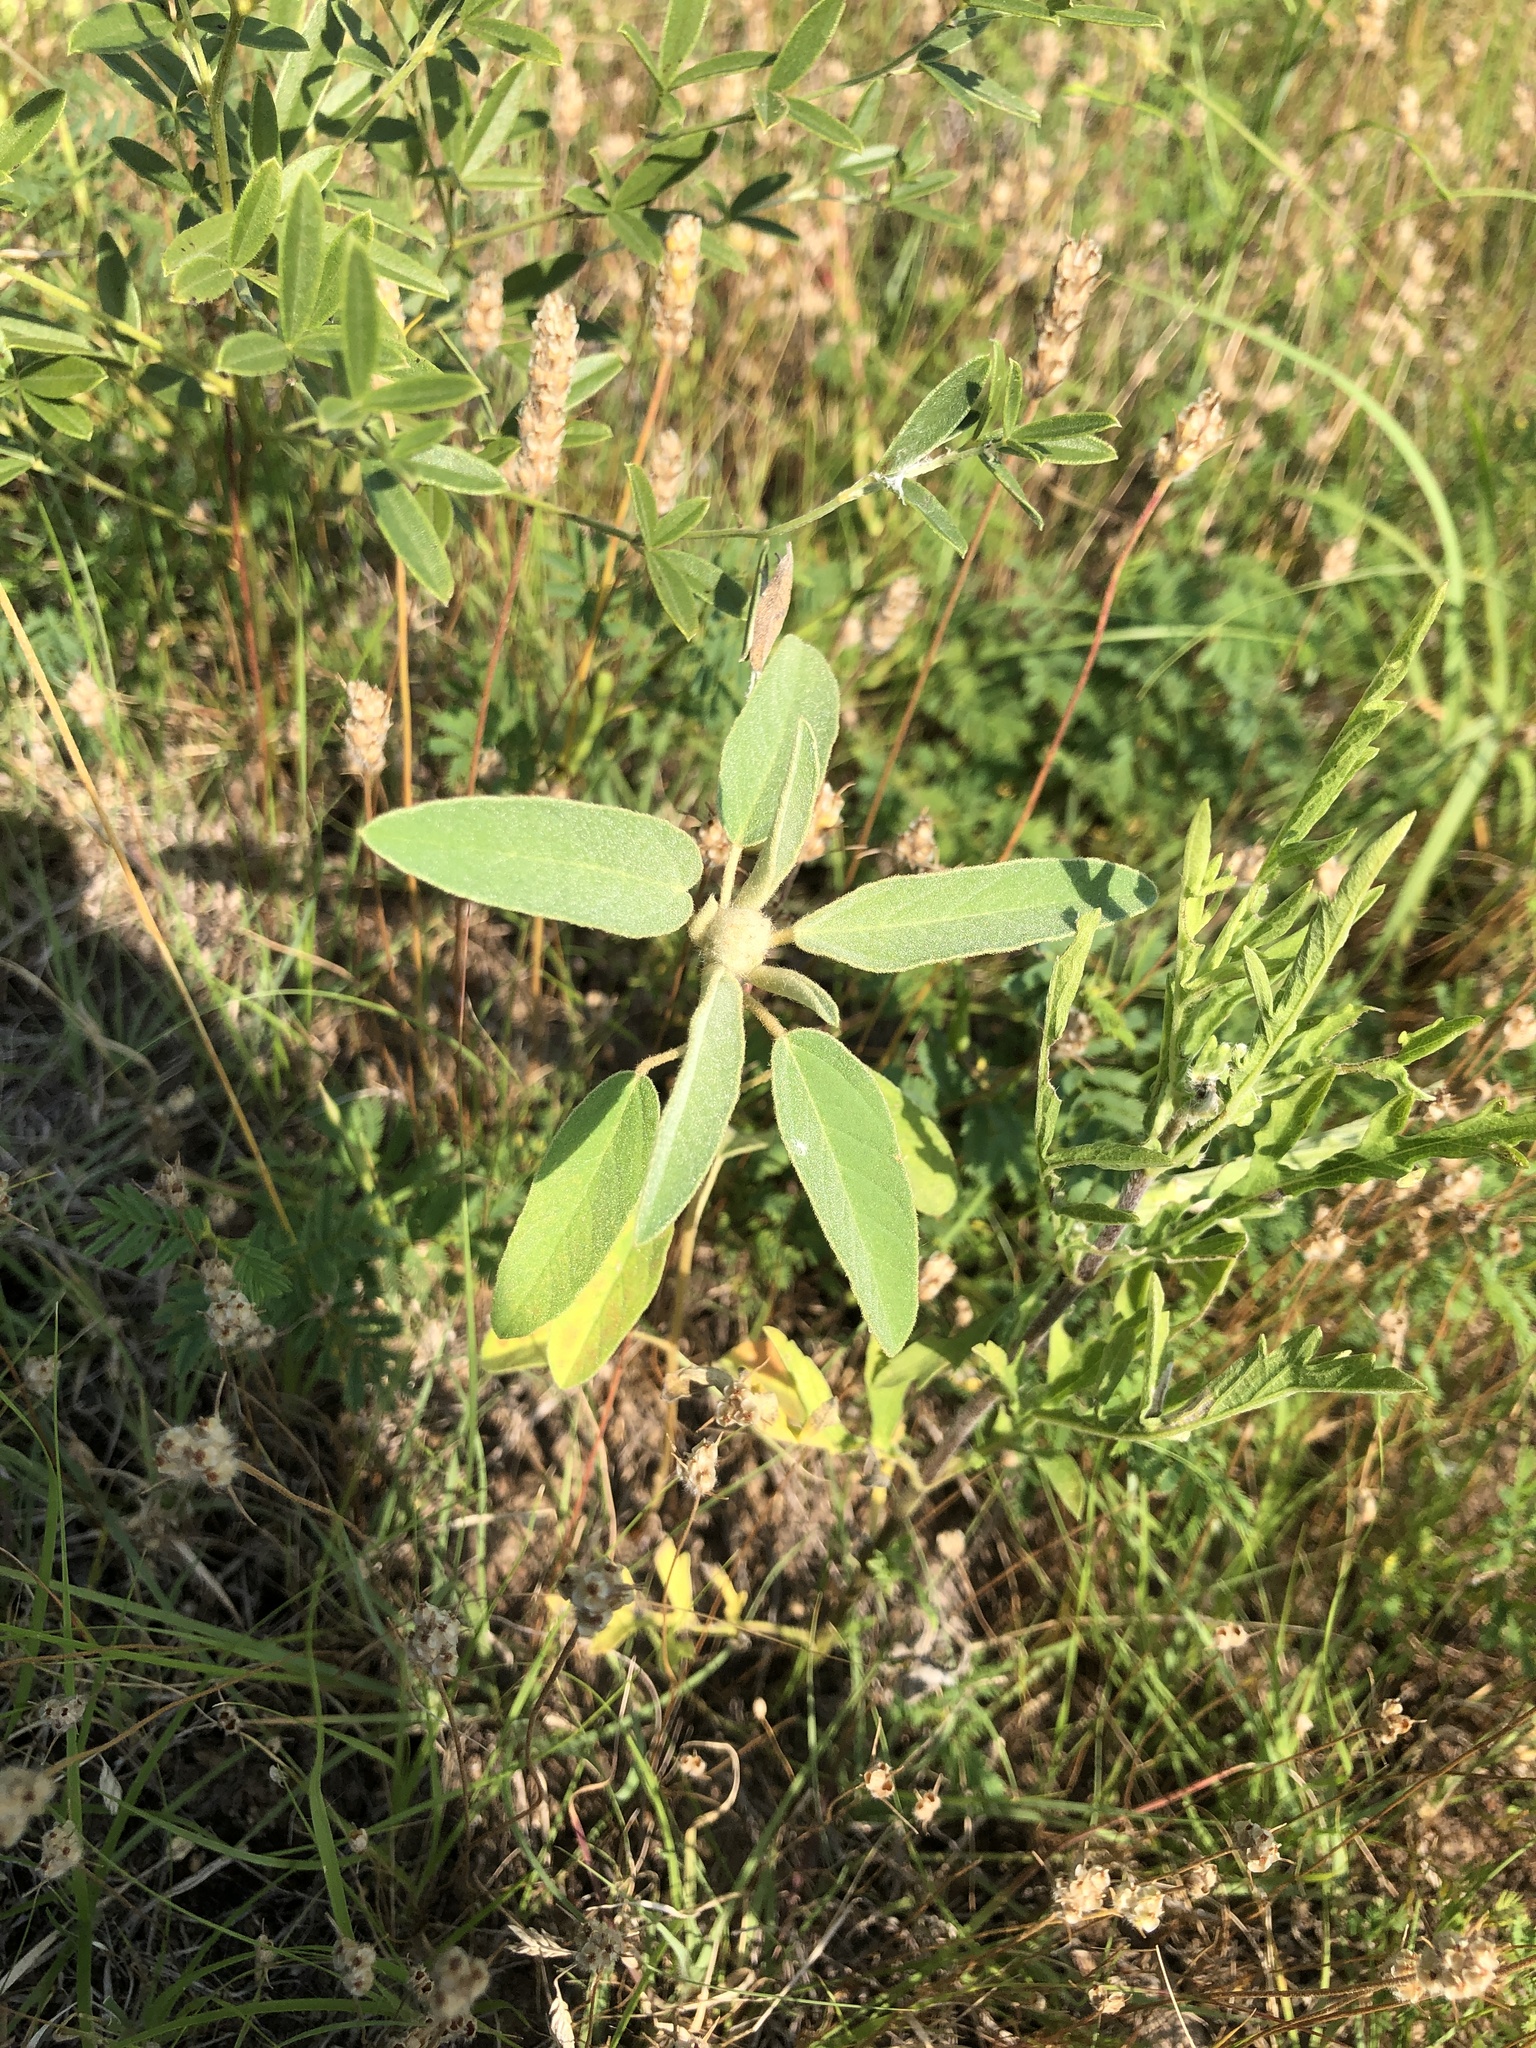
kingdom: Plantae
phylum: Tracheophyta
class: Magnoliopsida
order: Malpighiales
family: Euphorbiaceae
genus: Croton
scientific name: Croton capitatus
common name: Woolly croton
